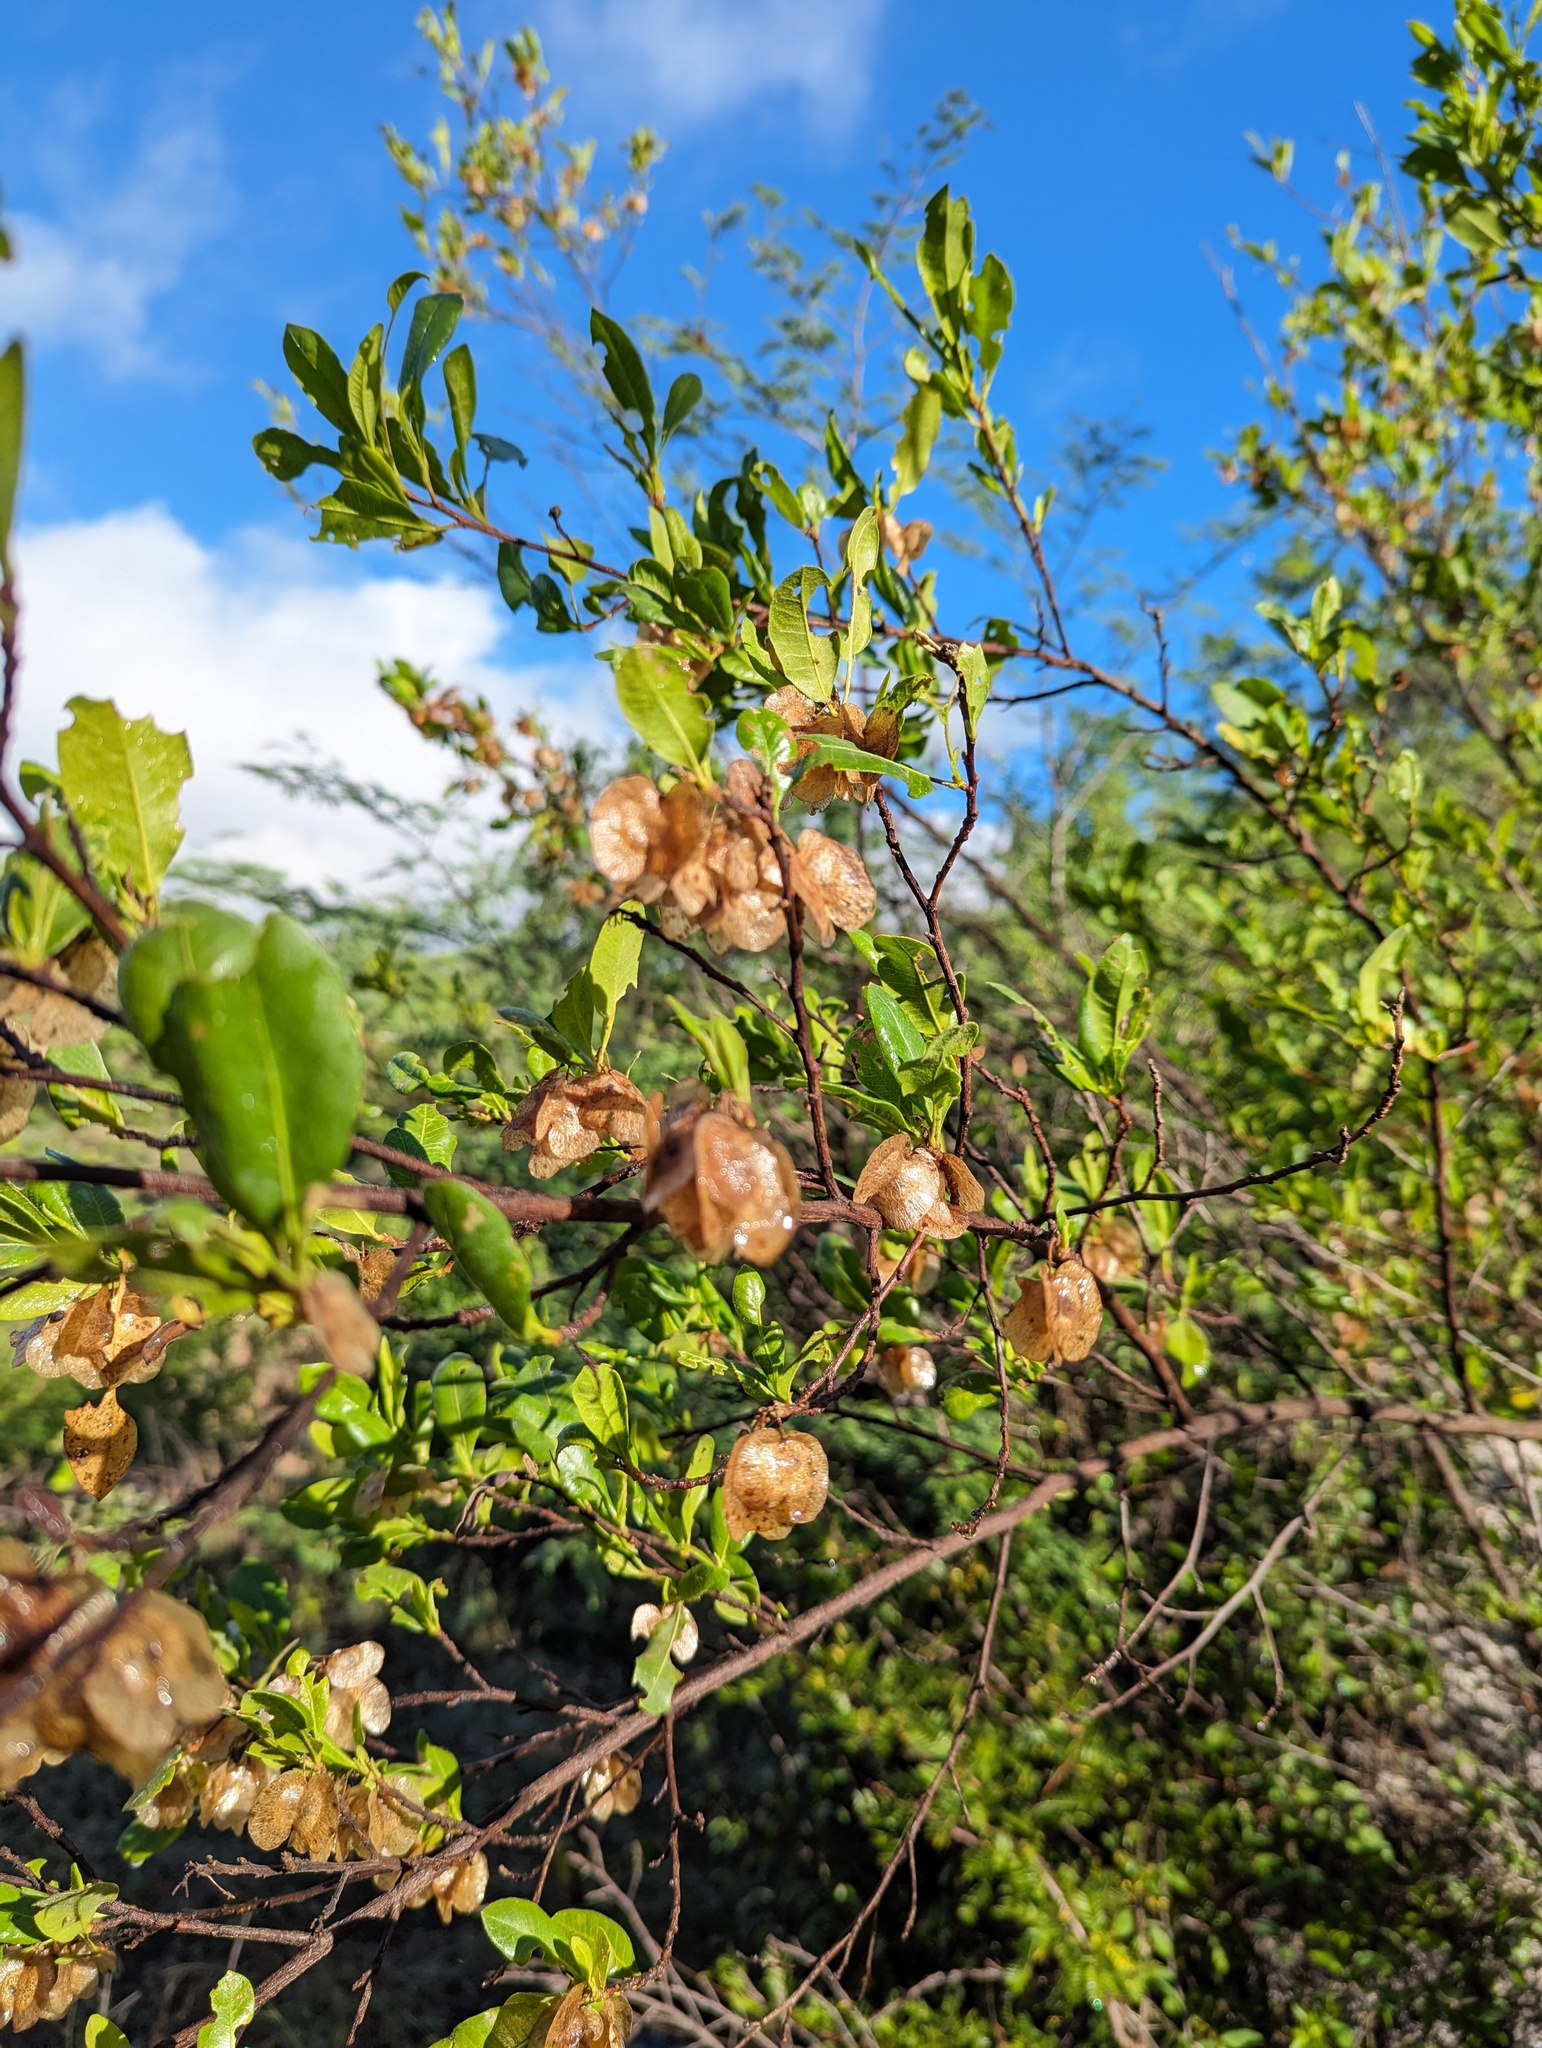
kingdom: Plantae
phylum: Tracheophyta
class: Magnoliopsida
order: Sapindales
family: Sapindaceae
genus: Dodonaea
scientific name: Dodonaea viscosa
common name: Hopbush
